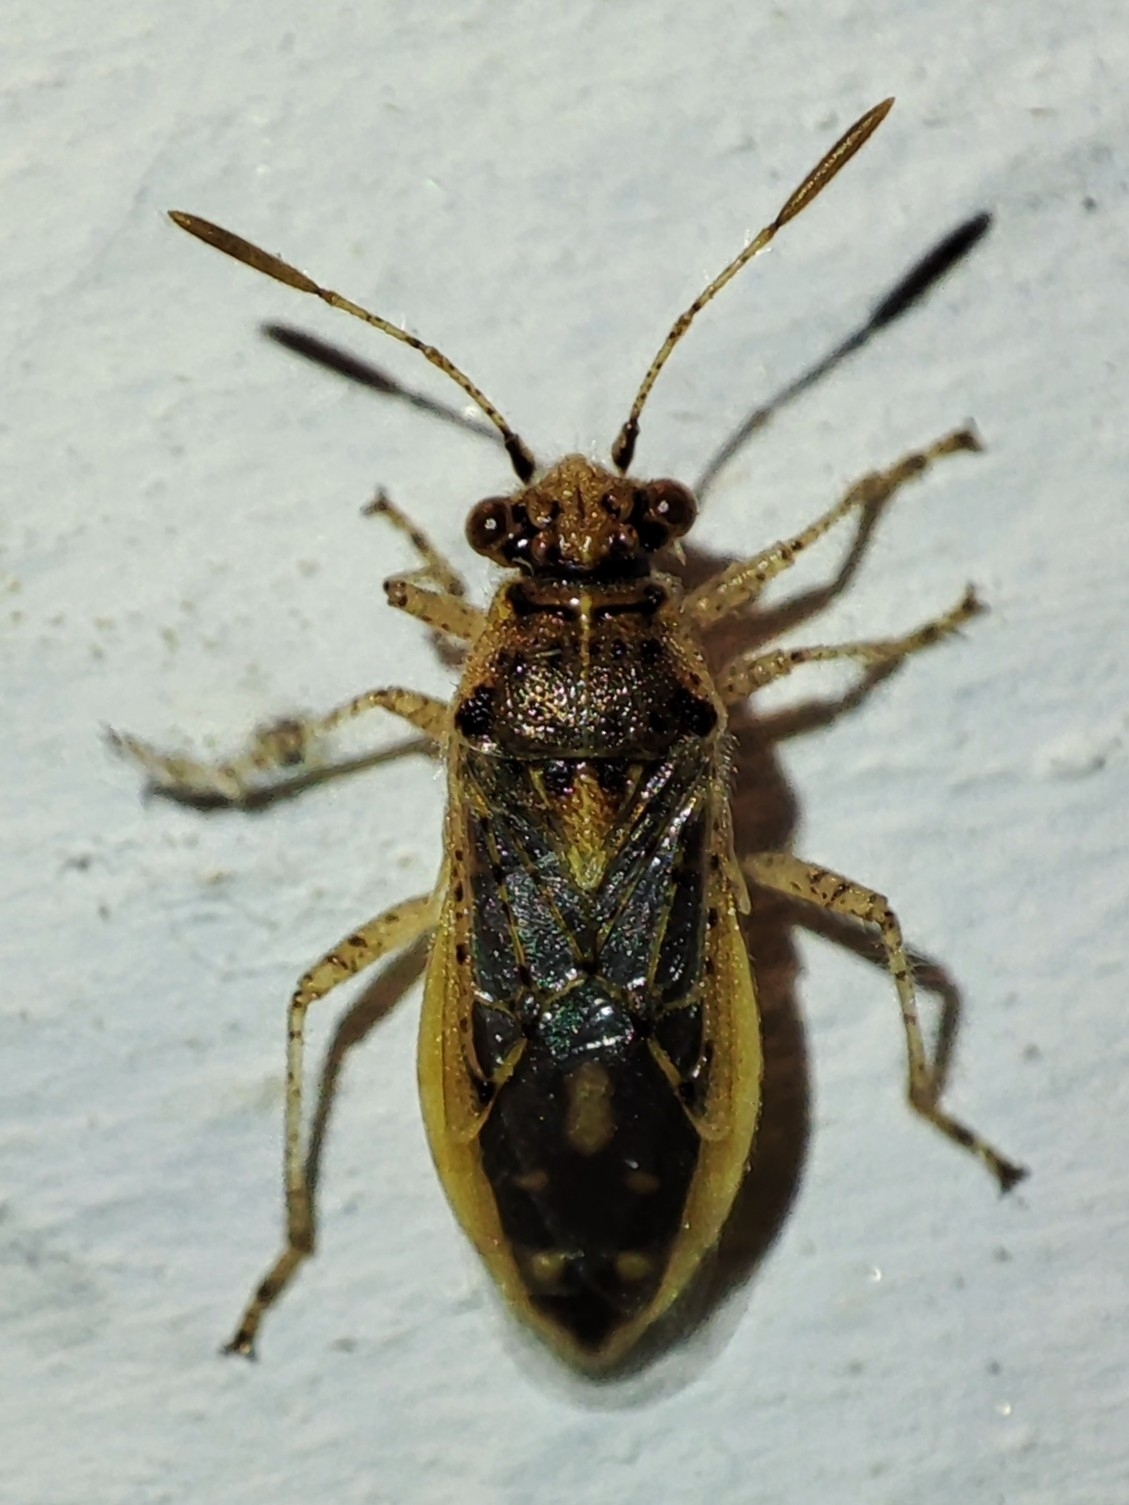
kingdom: Animalia
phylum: Arthropoda
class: Insecta
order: Hemiptera
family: Rhopalidae
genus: Brachycarenus
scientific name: Brachycarenus tigrinus
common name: Scentless plant bug
